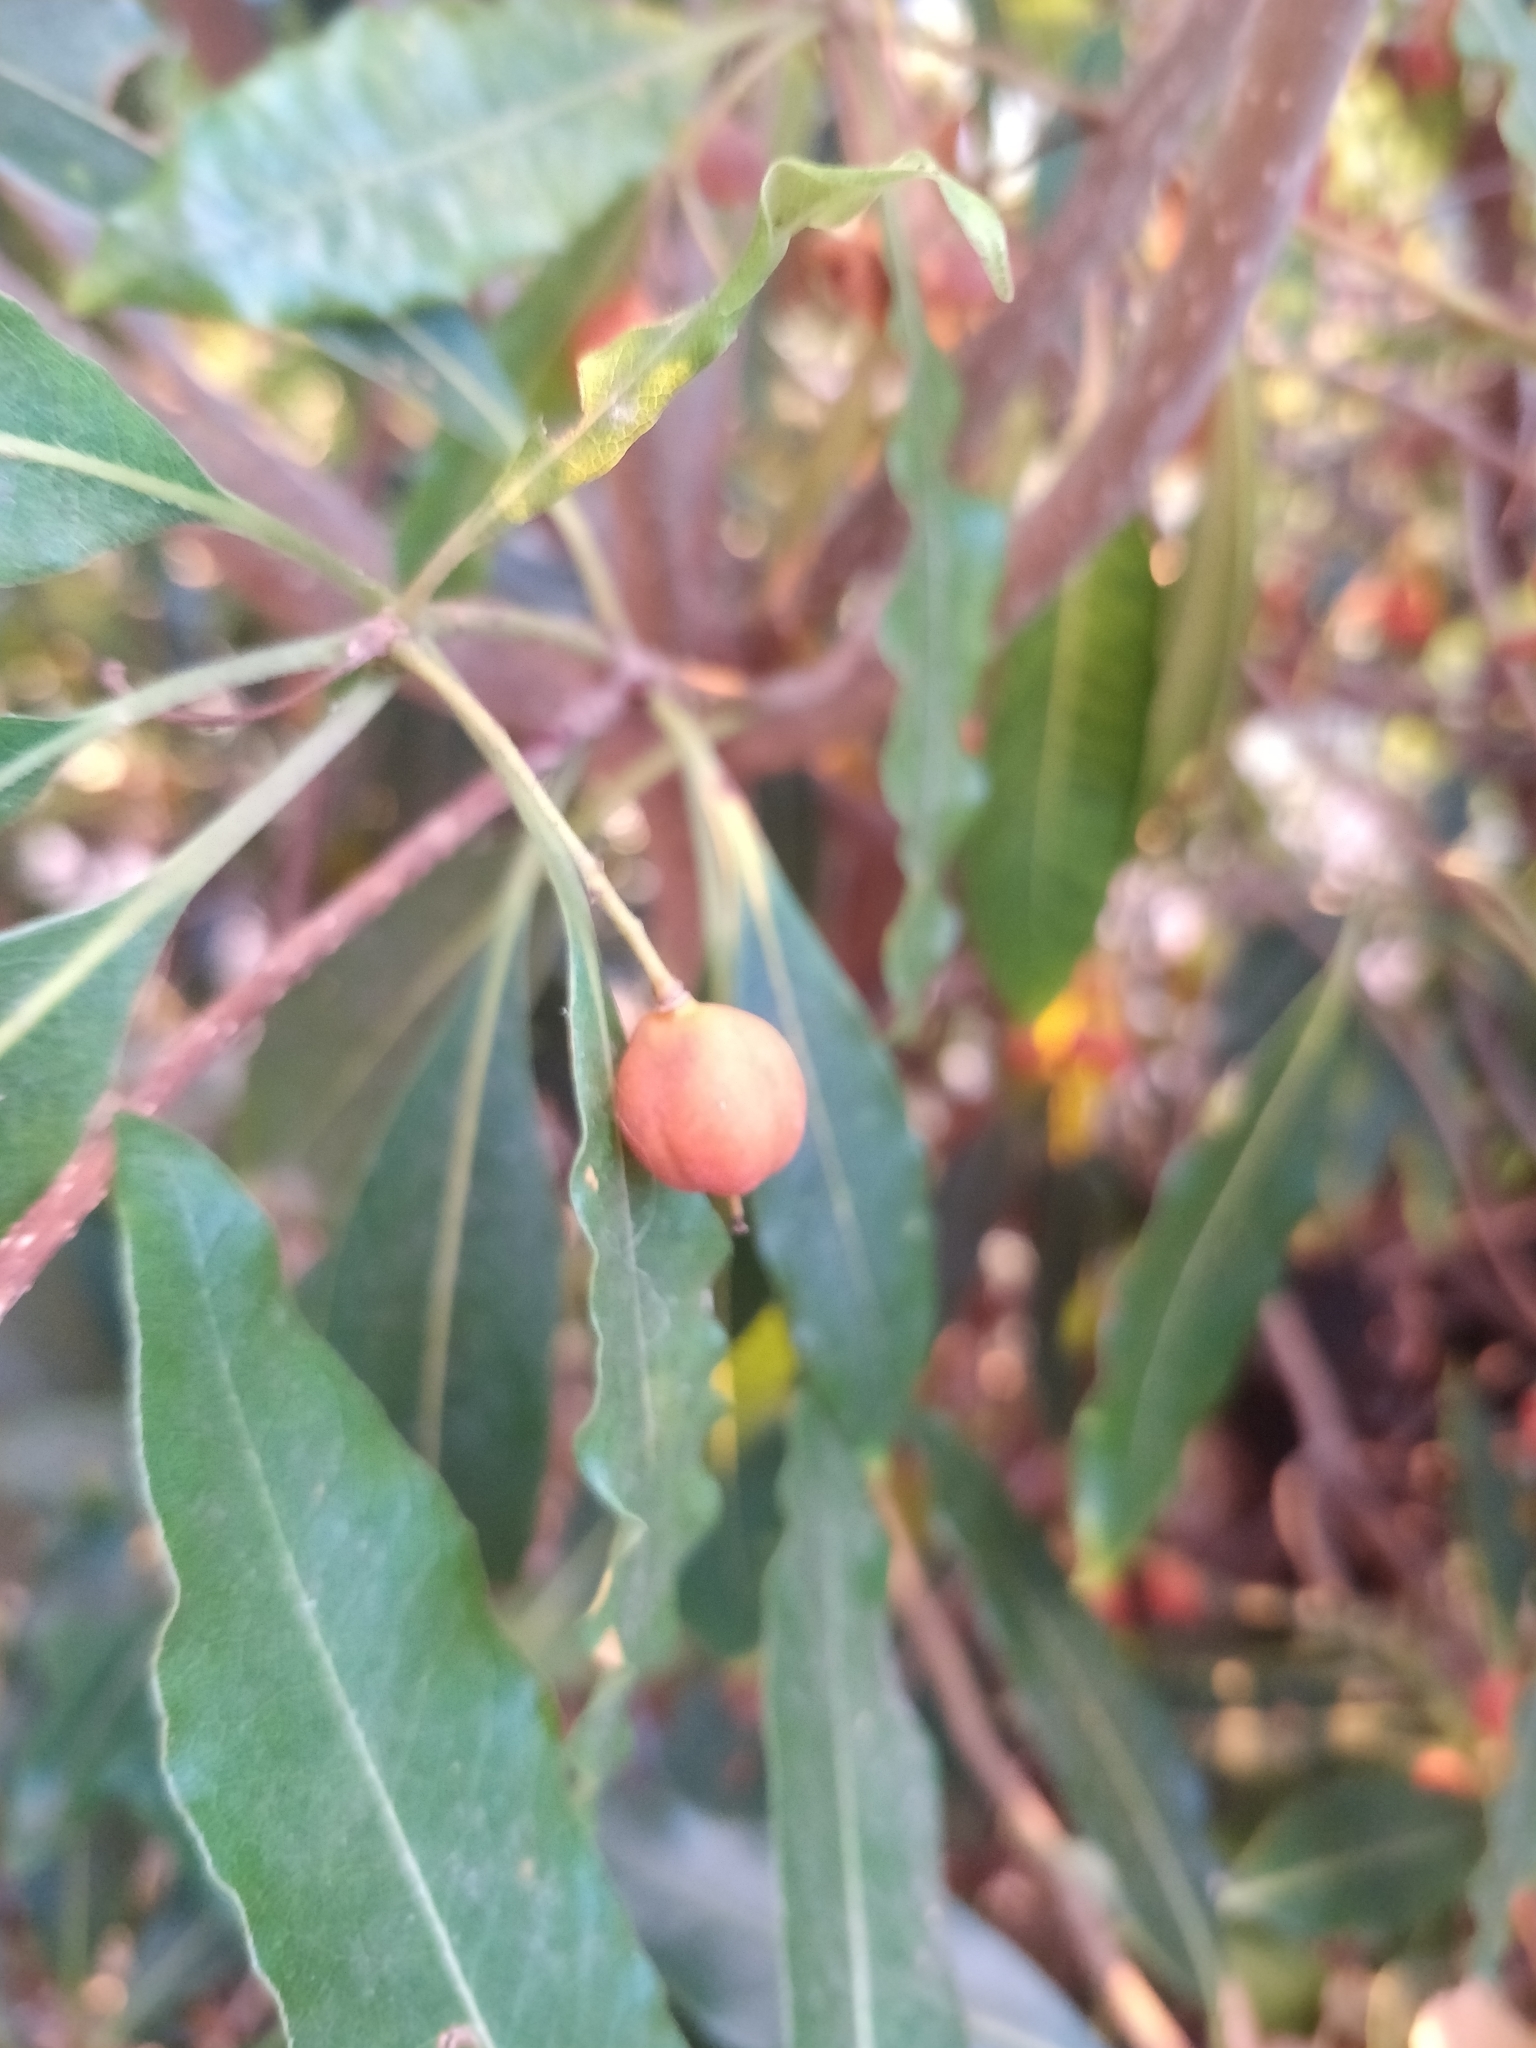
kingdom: Plantae
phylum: Tracheophyta
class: Magnoliopsida
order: Apiales
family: Pittosporaceae
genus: Pittosporum
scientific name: Pittosporum undulatum
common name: Australian cheesewood
